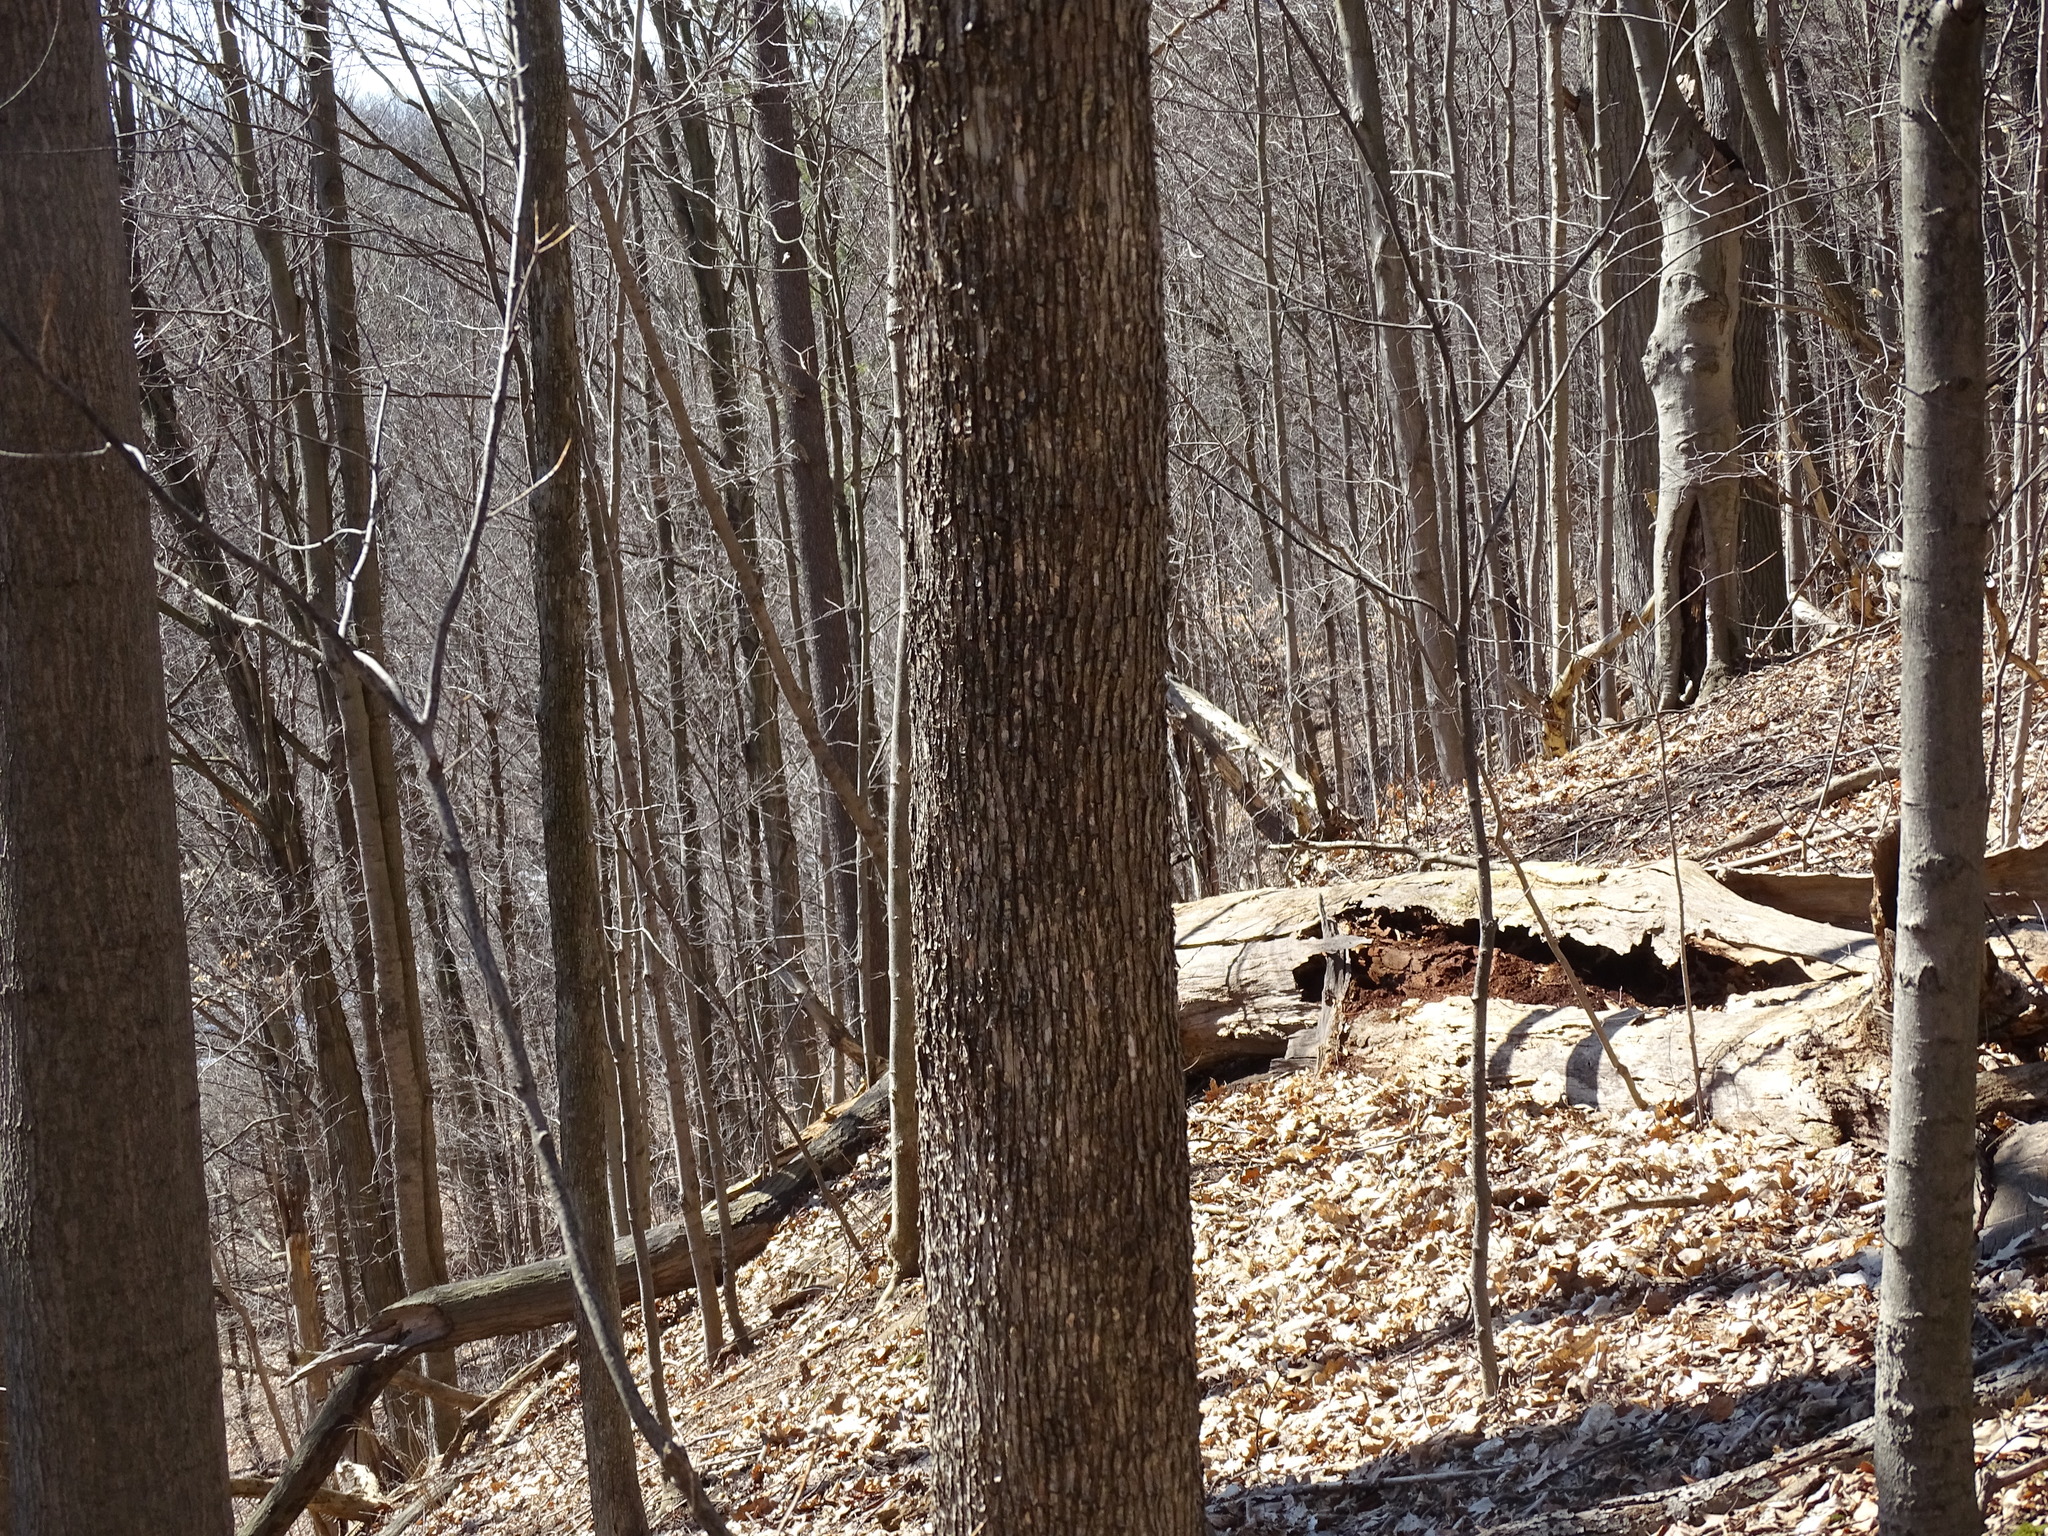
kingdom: Plantae
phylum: Tracheophyta
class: Magnoliopsida
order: Fagales
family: Betulaceae
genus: Ostrya
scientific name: Ostrya virginiana
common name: Ironwood
